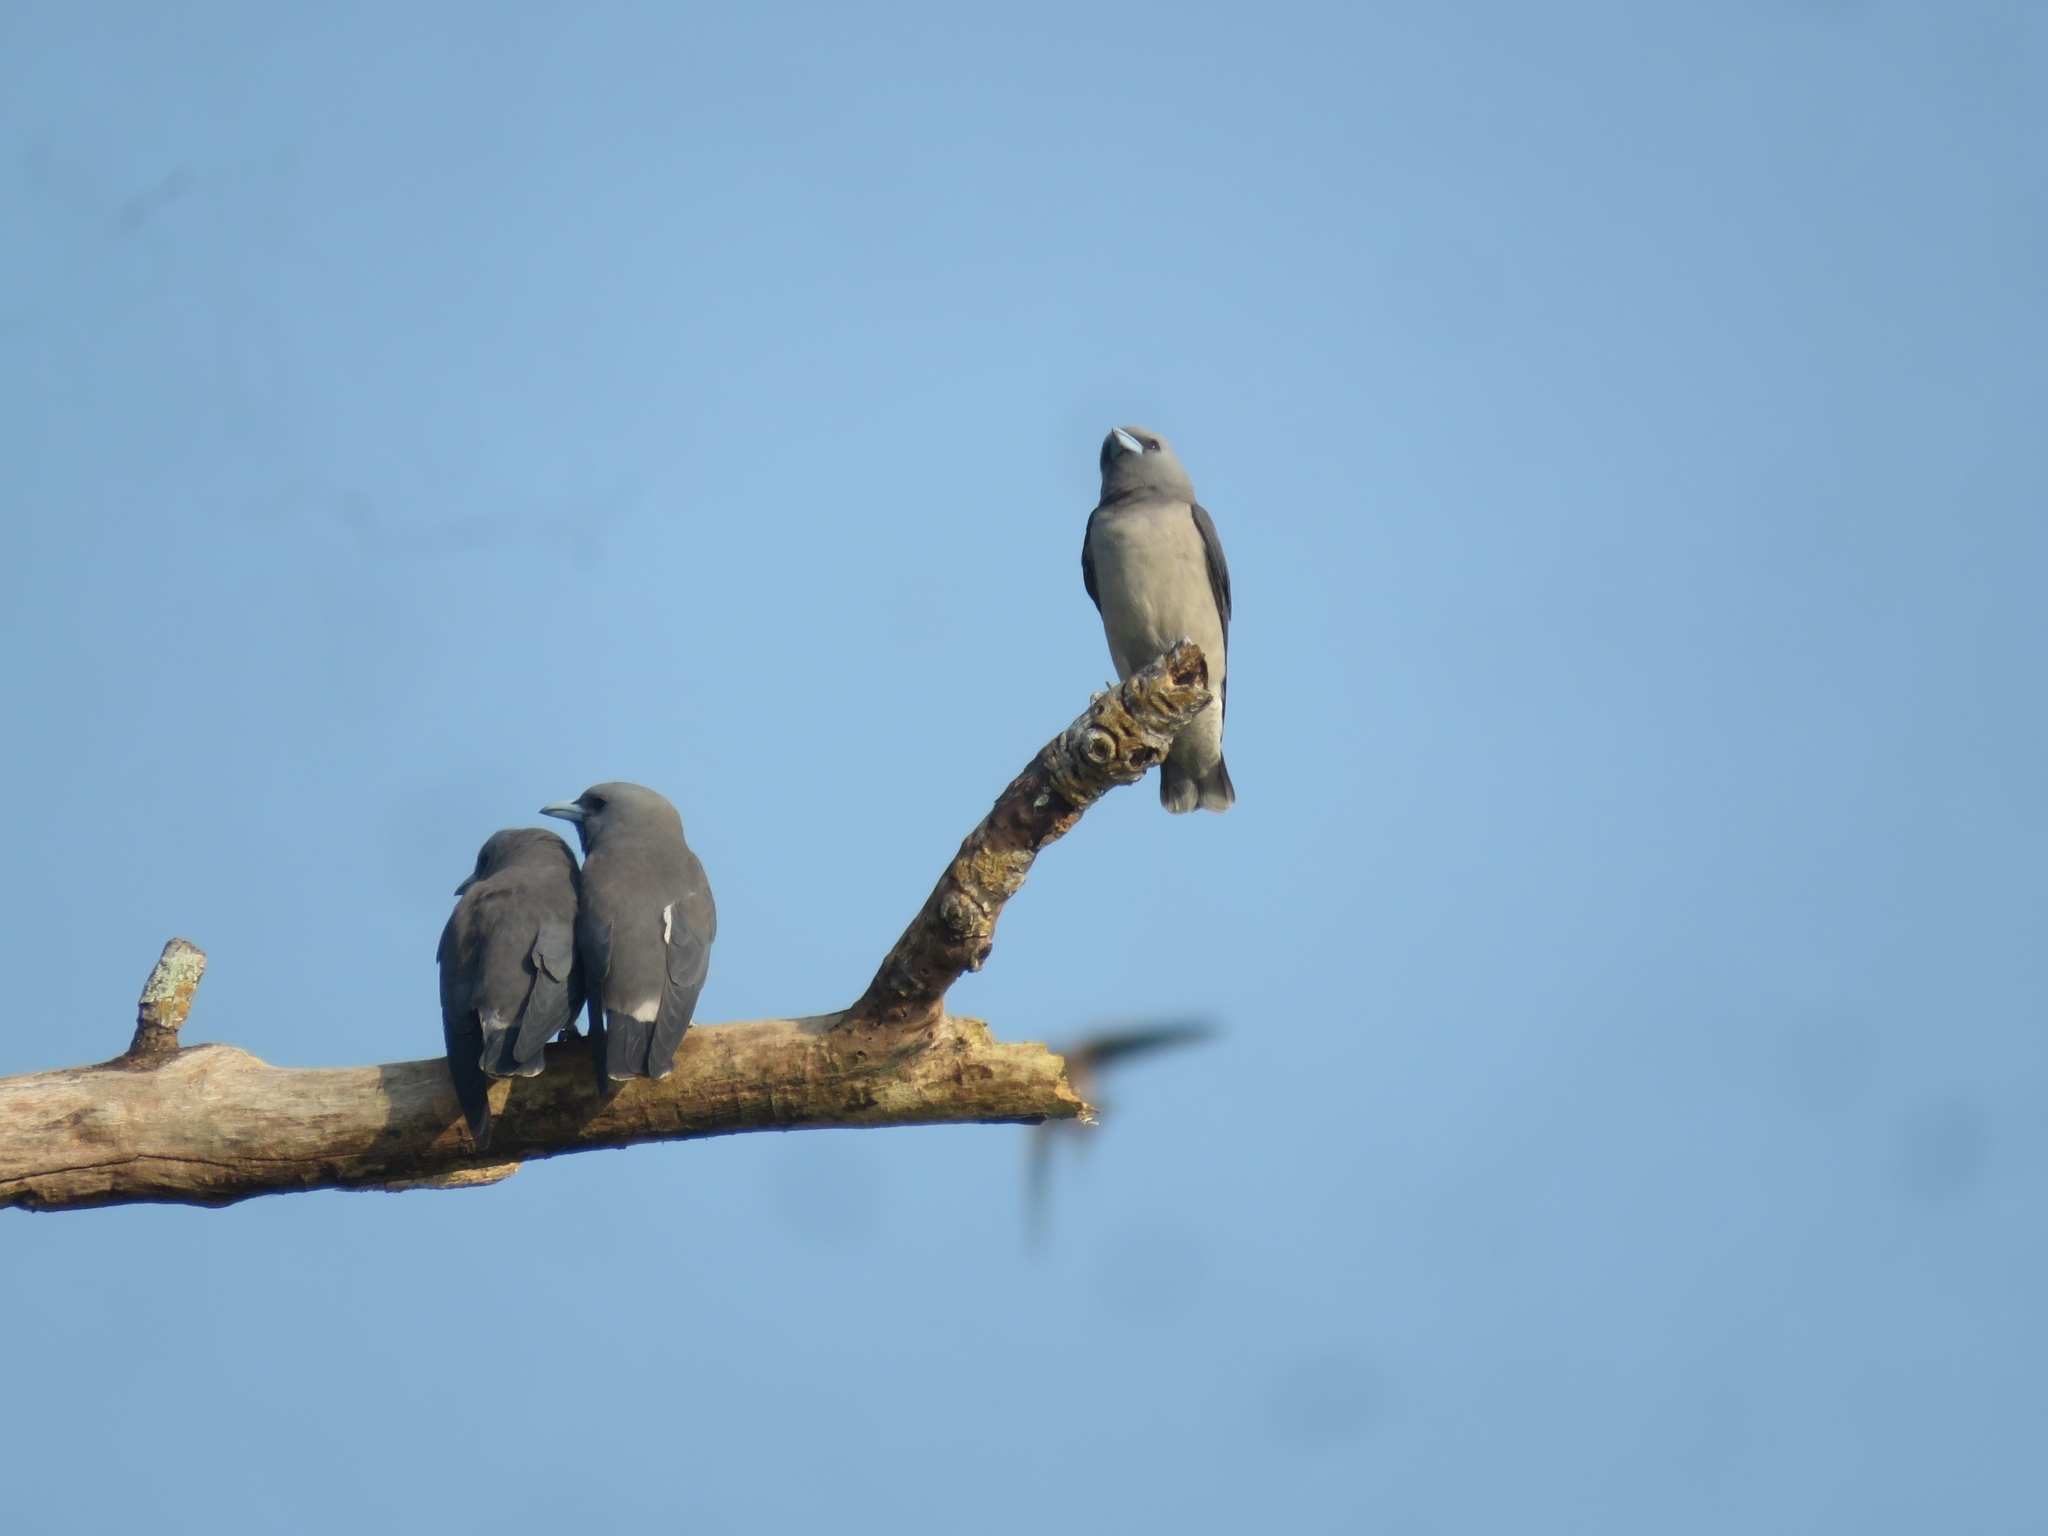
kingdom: Animalia
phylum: Chordata
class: Aves
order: Passeriformes
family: Artamidae
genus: Artamus
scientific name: Artamus fuscus
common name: Ashy woodswallow
